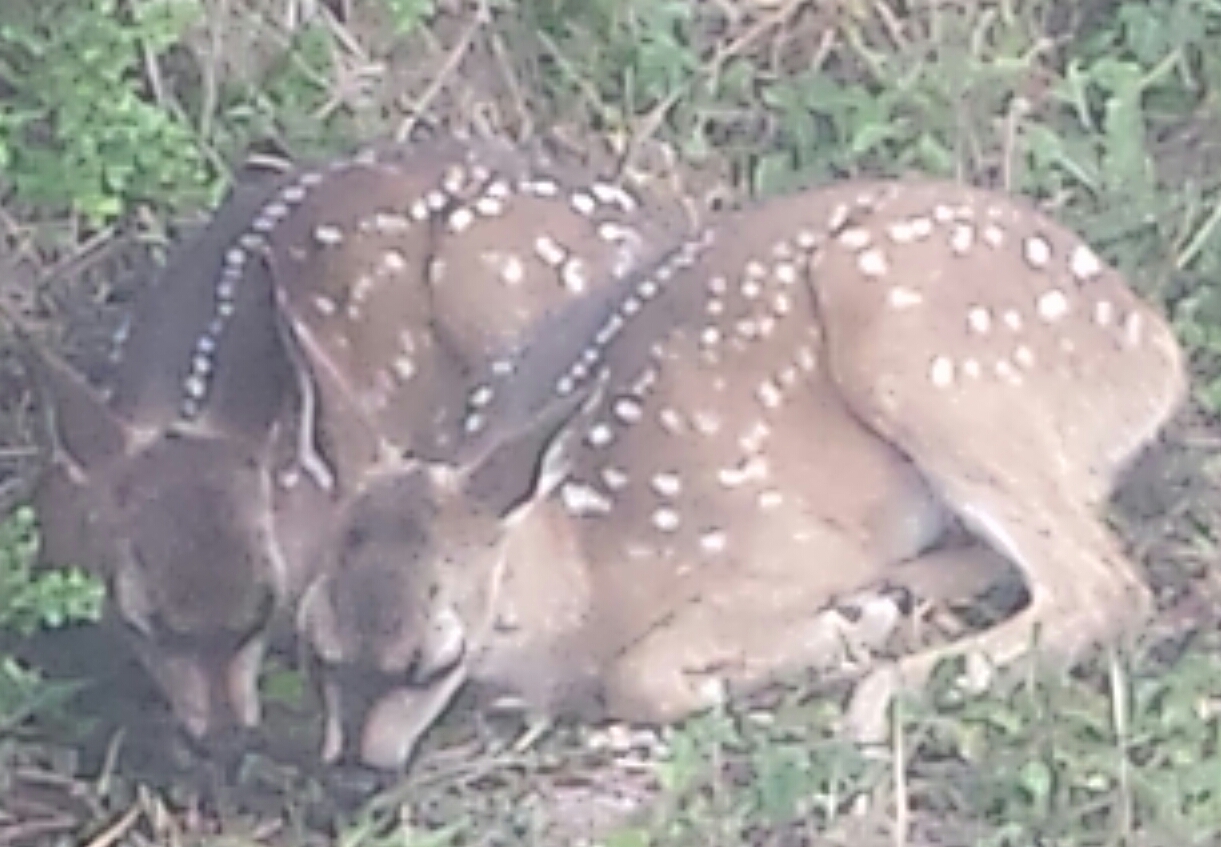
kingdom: Animalia
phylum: Chordata
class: Mammalia
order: Artiodactyla
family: Cervidae
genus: Odocoileus
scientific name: Odocoileus hemionus
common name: Mule deer
